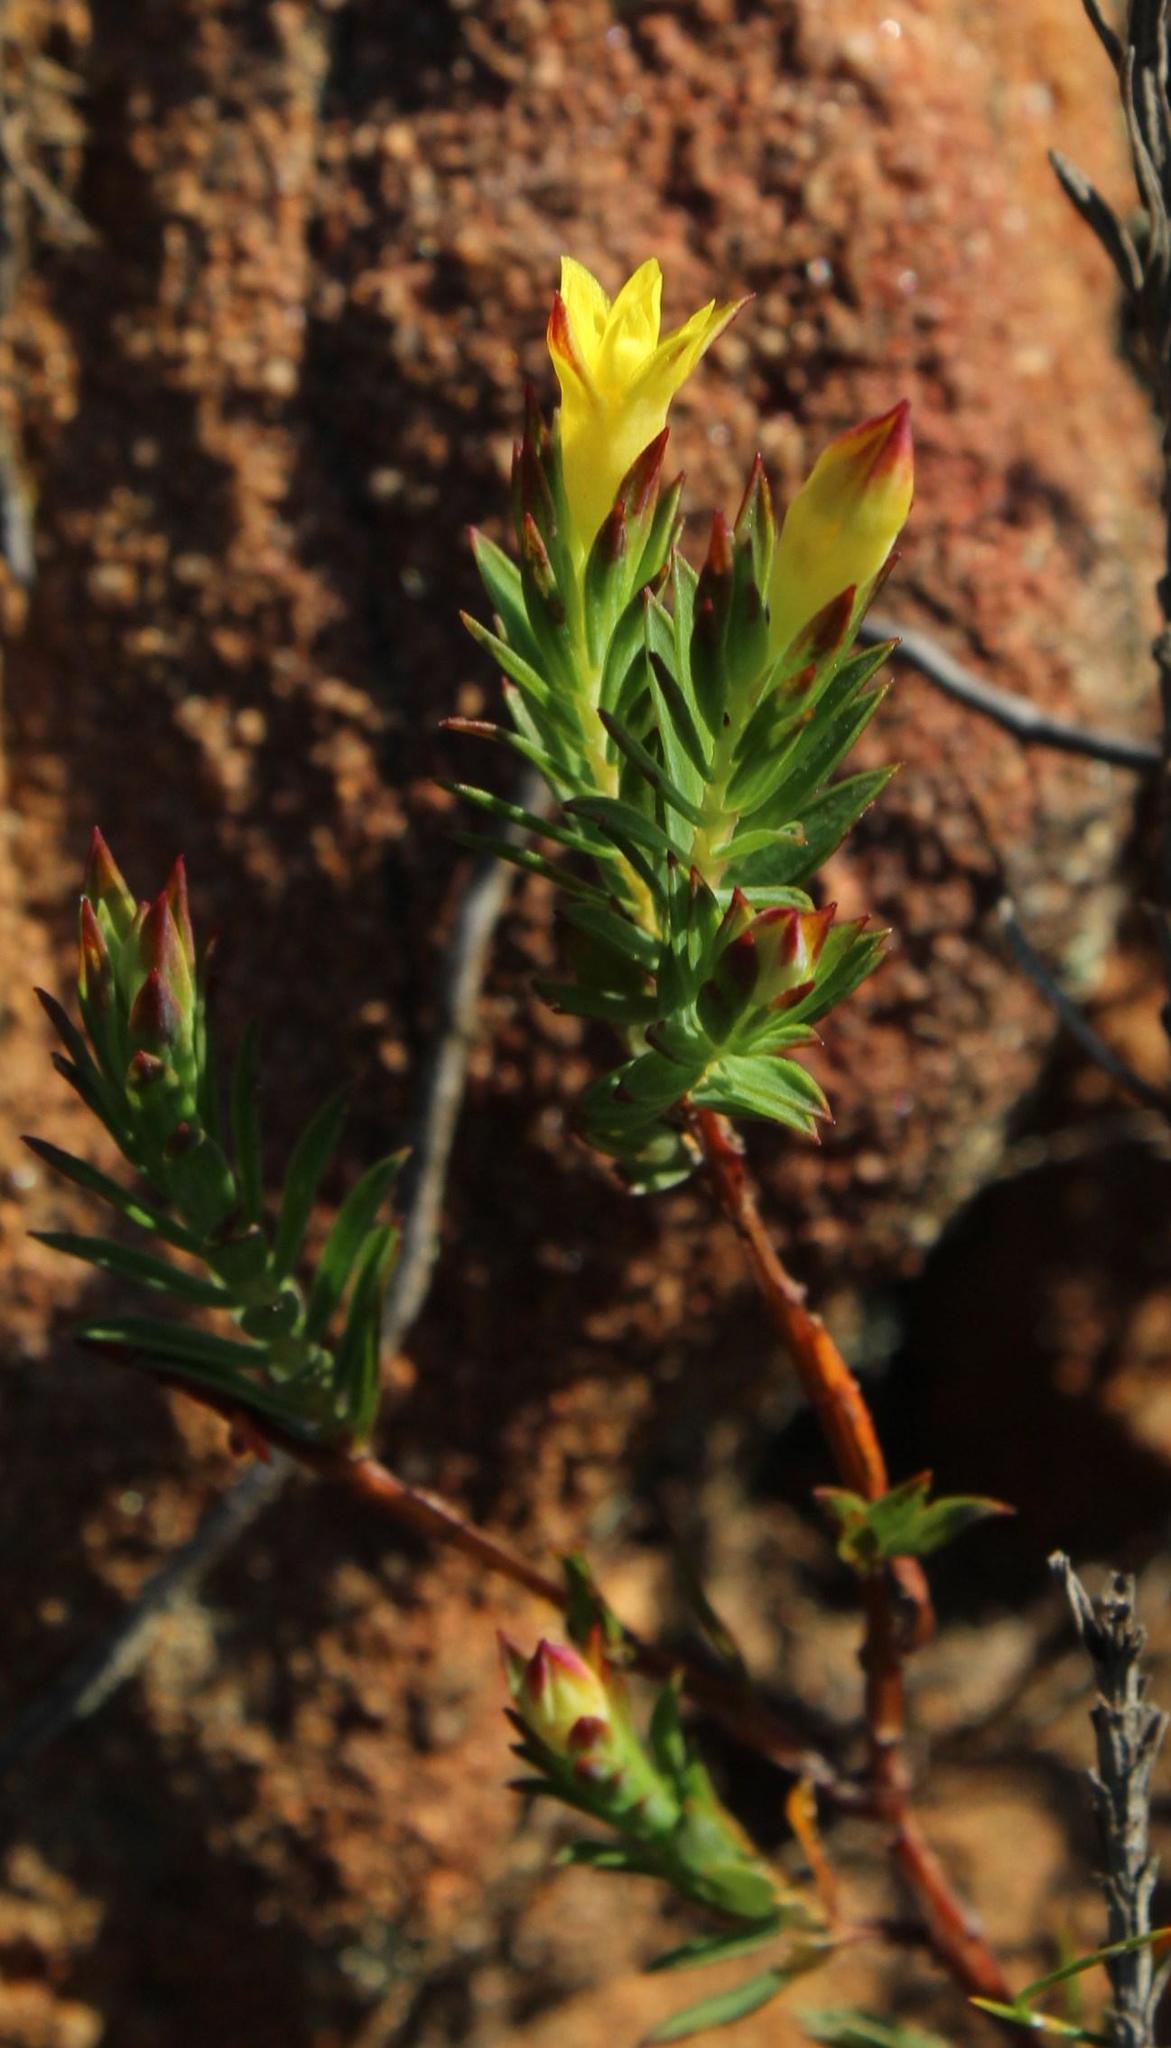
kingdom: Plantae
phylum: Tracheophyta
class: Magnoliopsida
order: Malvales
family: Thymelaeaceae
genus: Gnidia
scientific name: Gnidia juniperifolia
